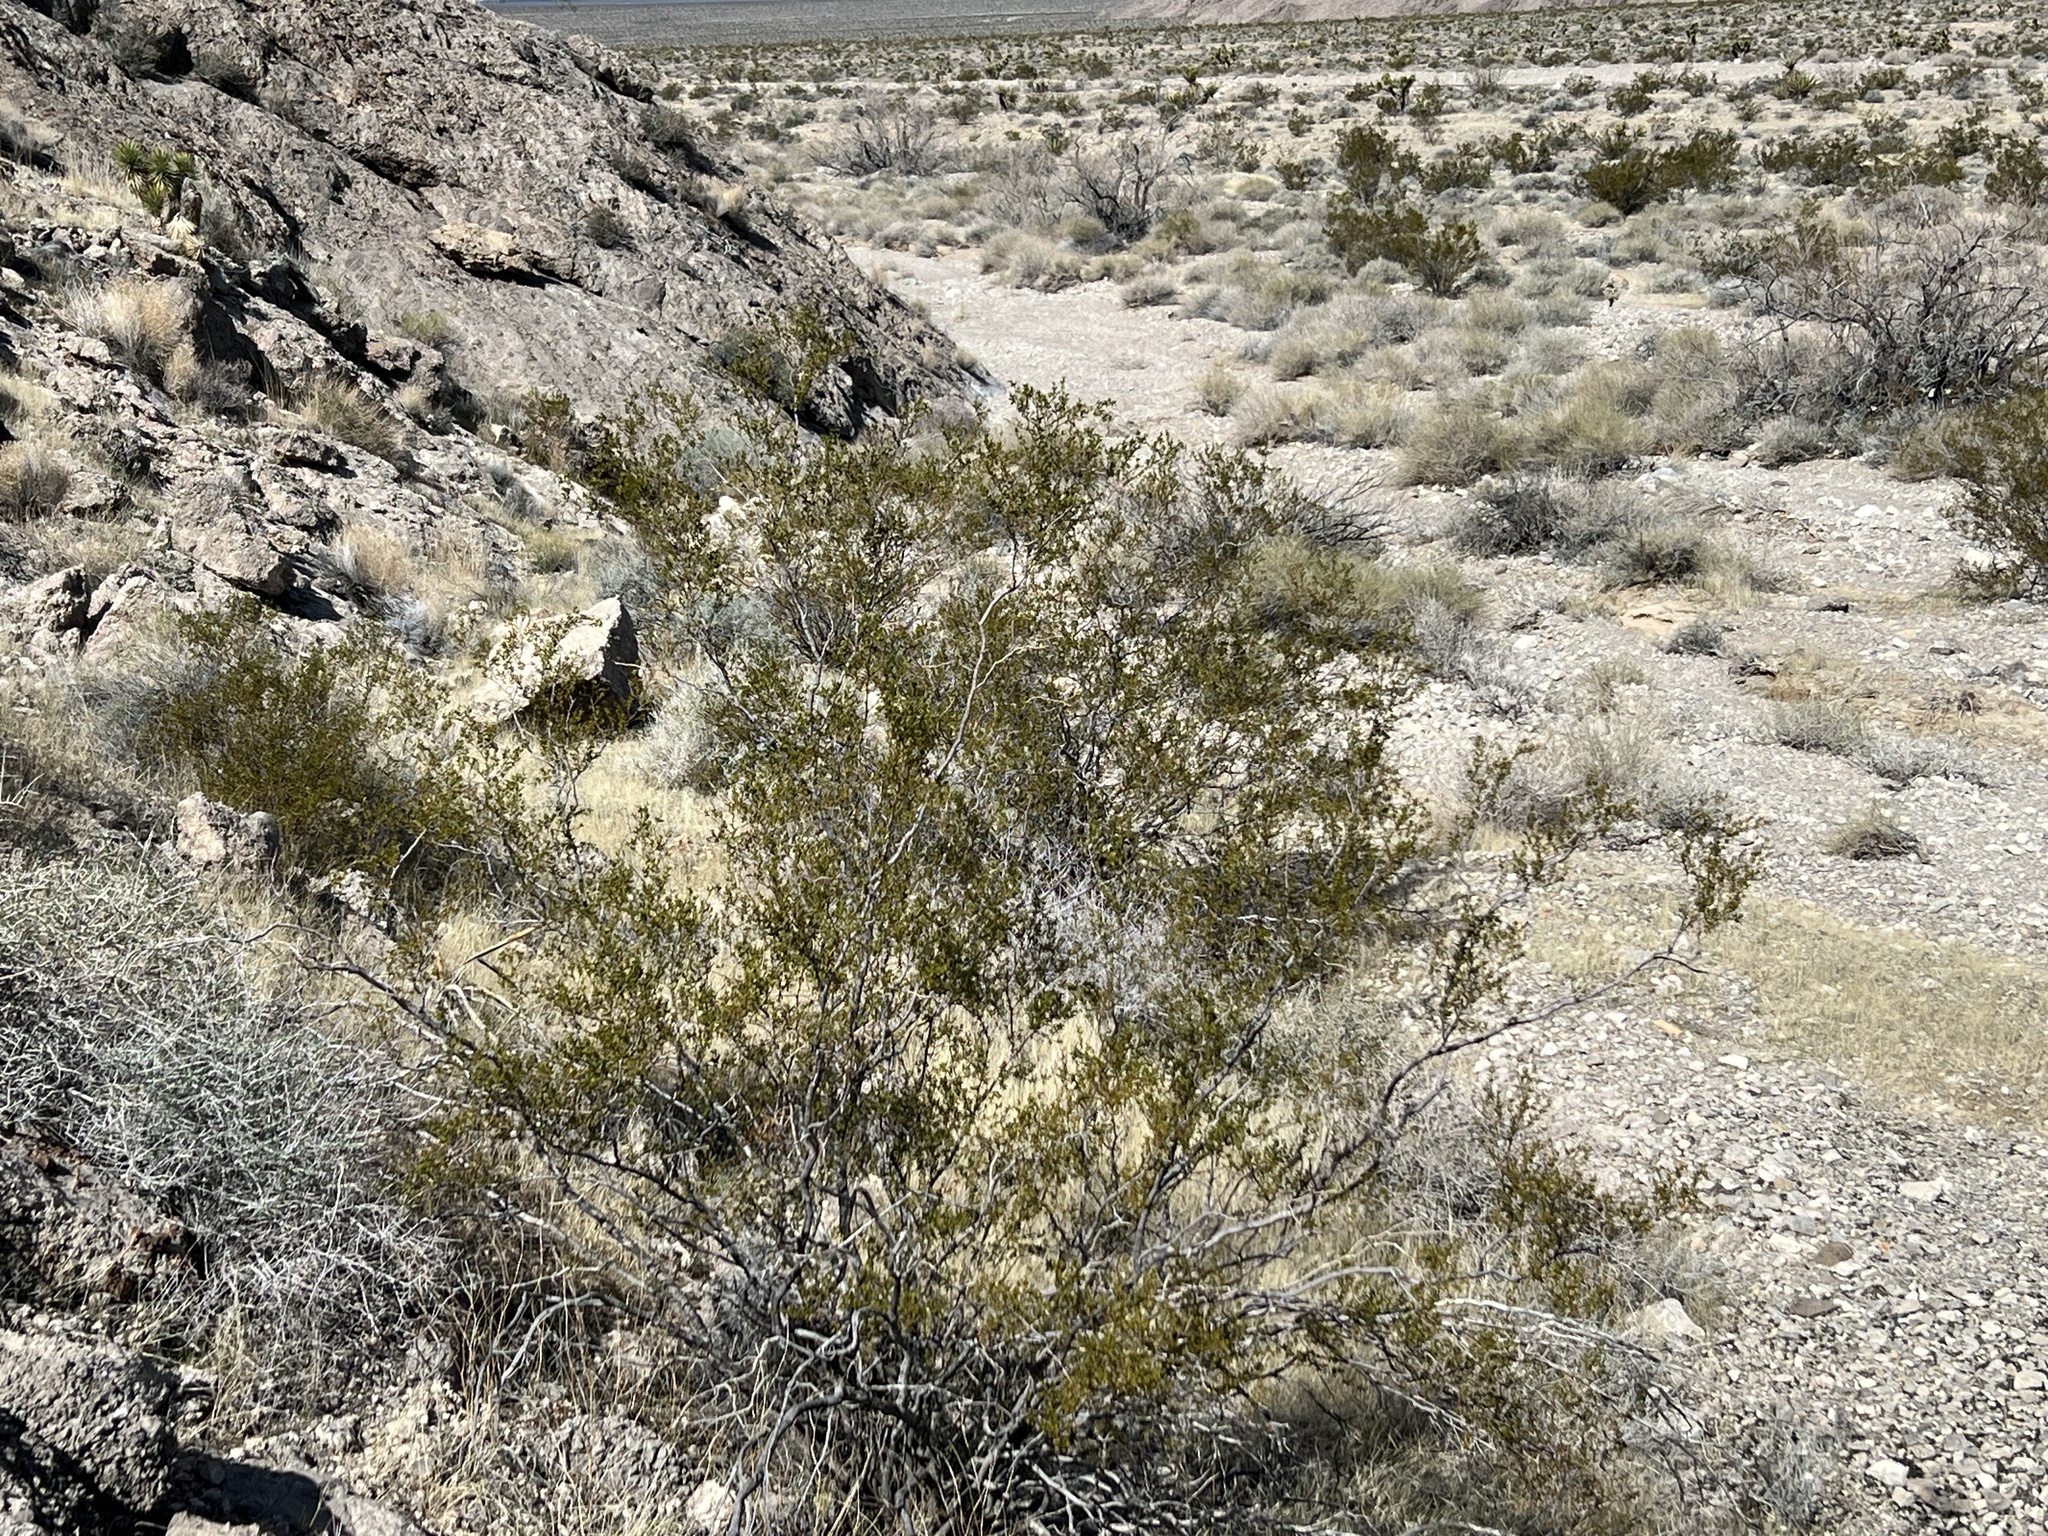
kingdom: Plantae
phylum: Tracheophyta
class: Magnoliopsida
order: Zygophyllales
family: Zygophyllaceae
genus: Larrea
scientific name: Larrea tridentata
